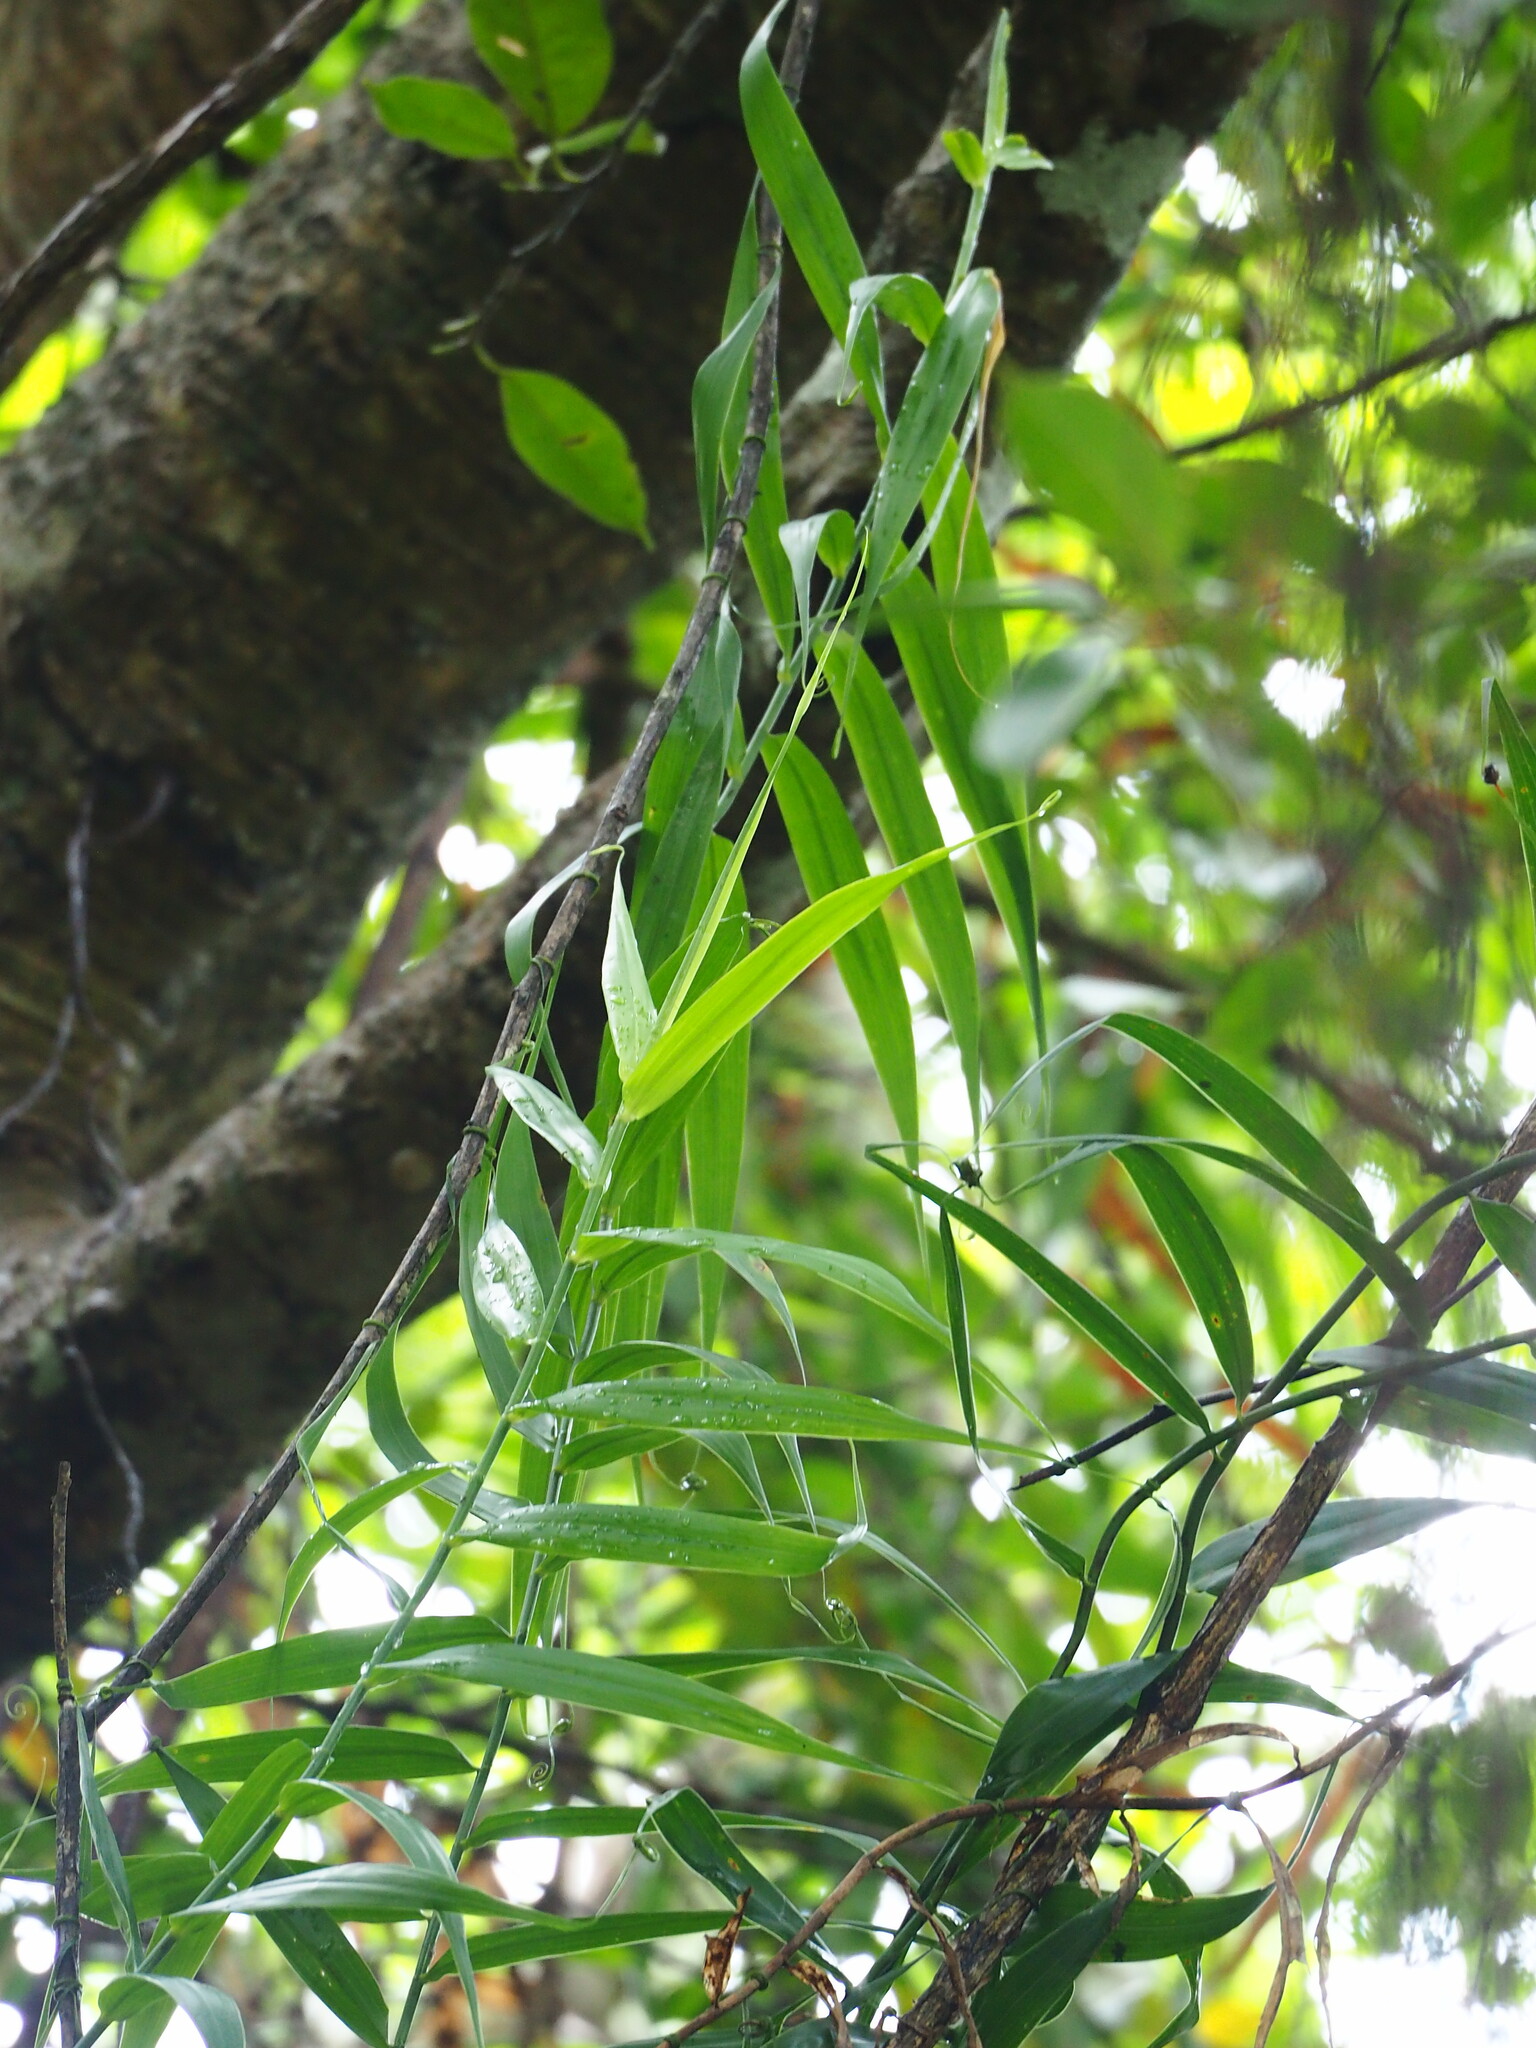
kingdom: Plantae
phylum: Tracheophyta
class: Liliopsida
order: Poales
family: Flagellariaceae
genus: Flagellaria
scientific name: Flagellaria indica
